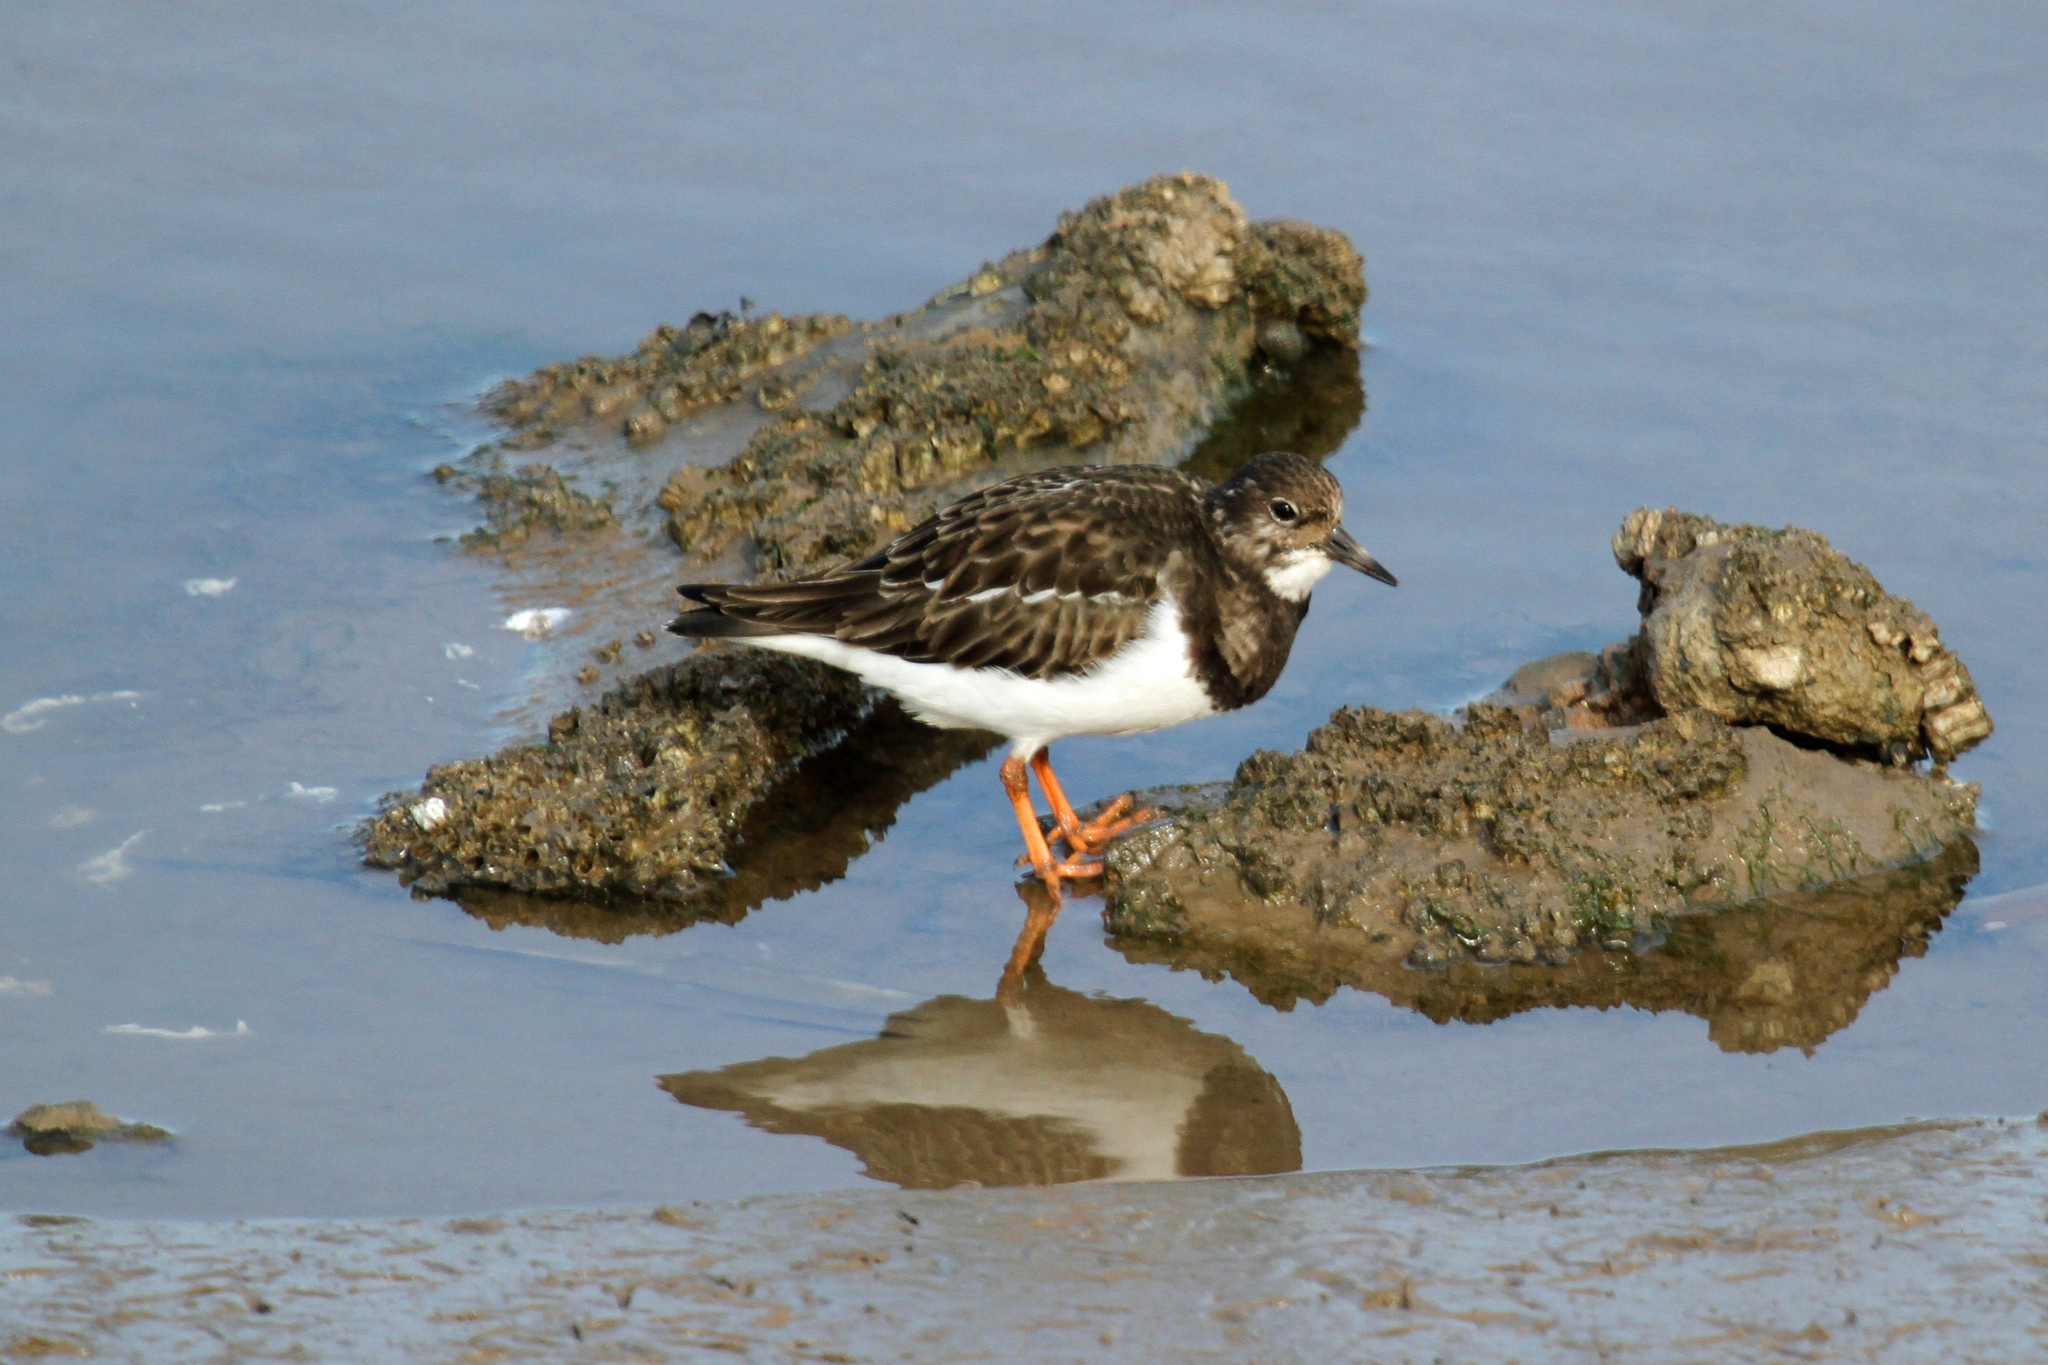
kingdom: Animalia
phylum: Chordata
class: Aves
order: Charadriiformes
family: Scolopacidae
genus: Arenaria
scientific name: Arenaria interpres
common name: Ruddy turnstone
